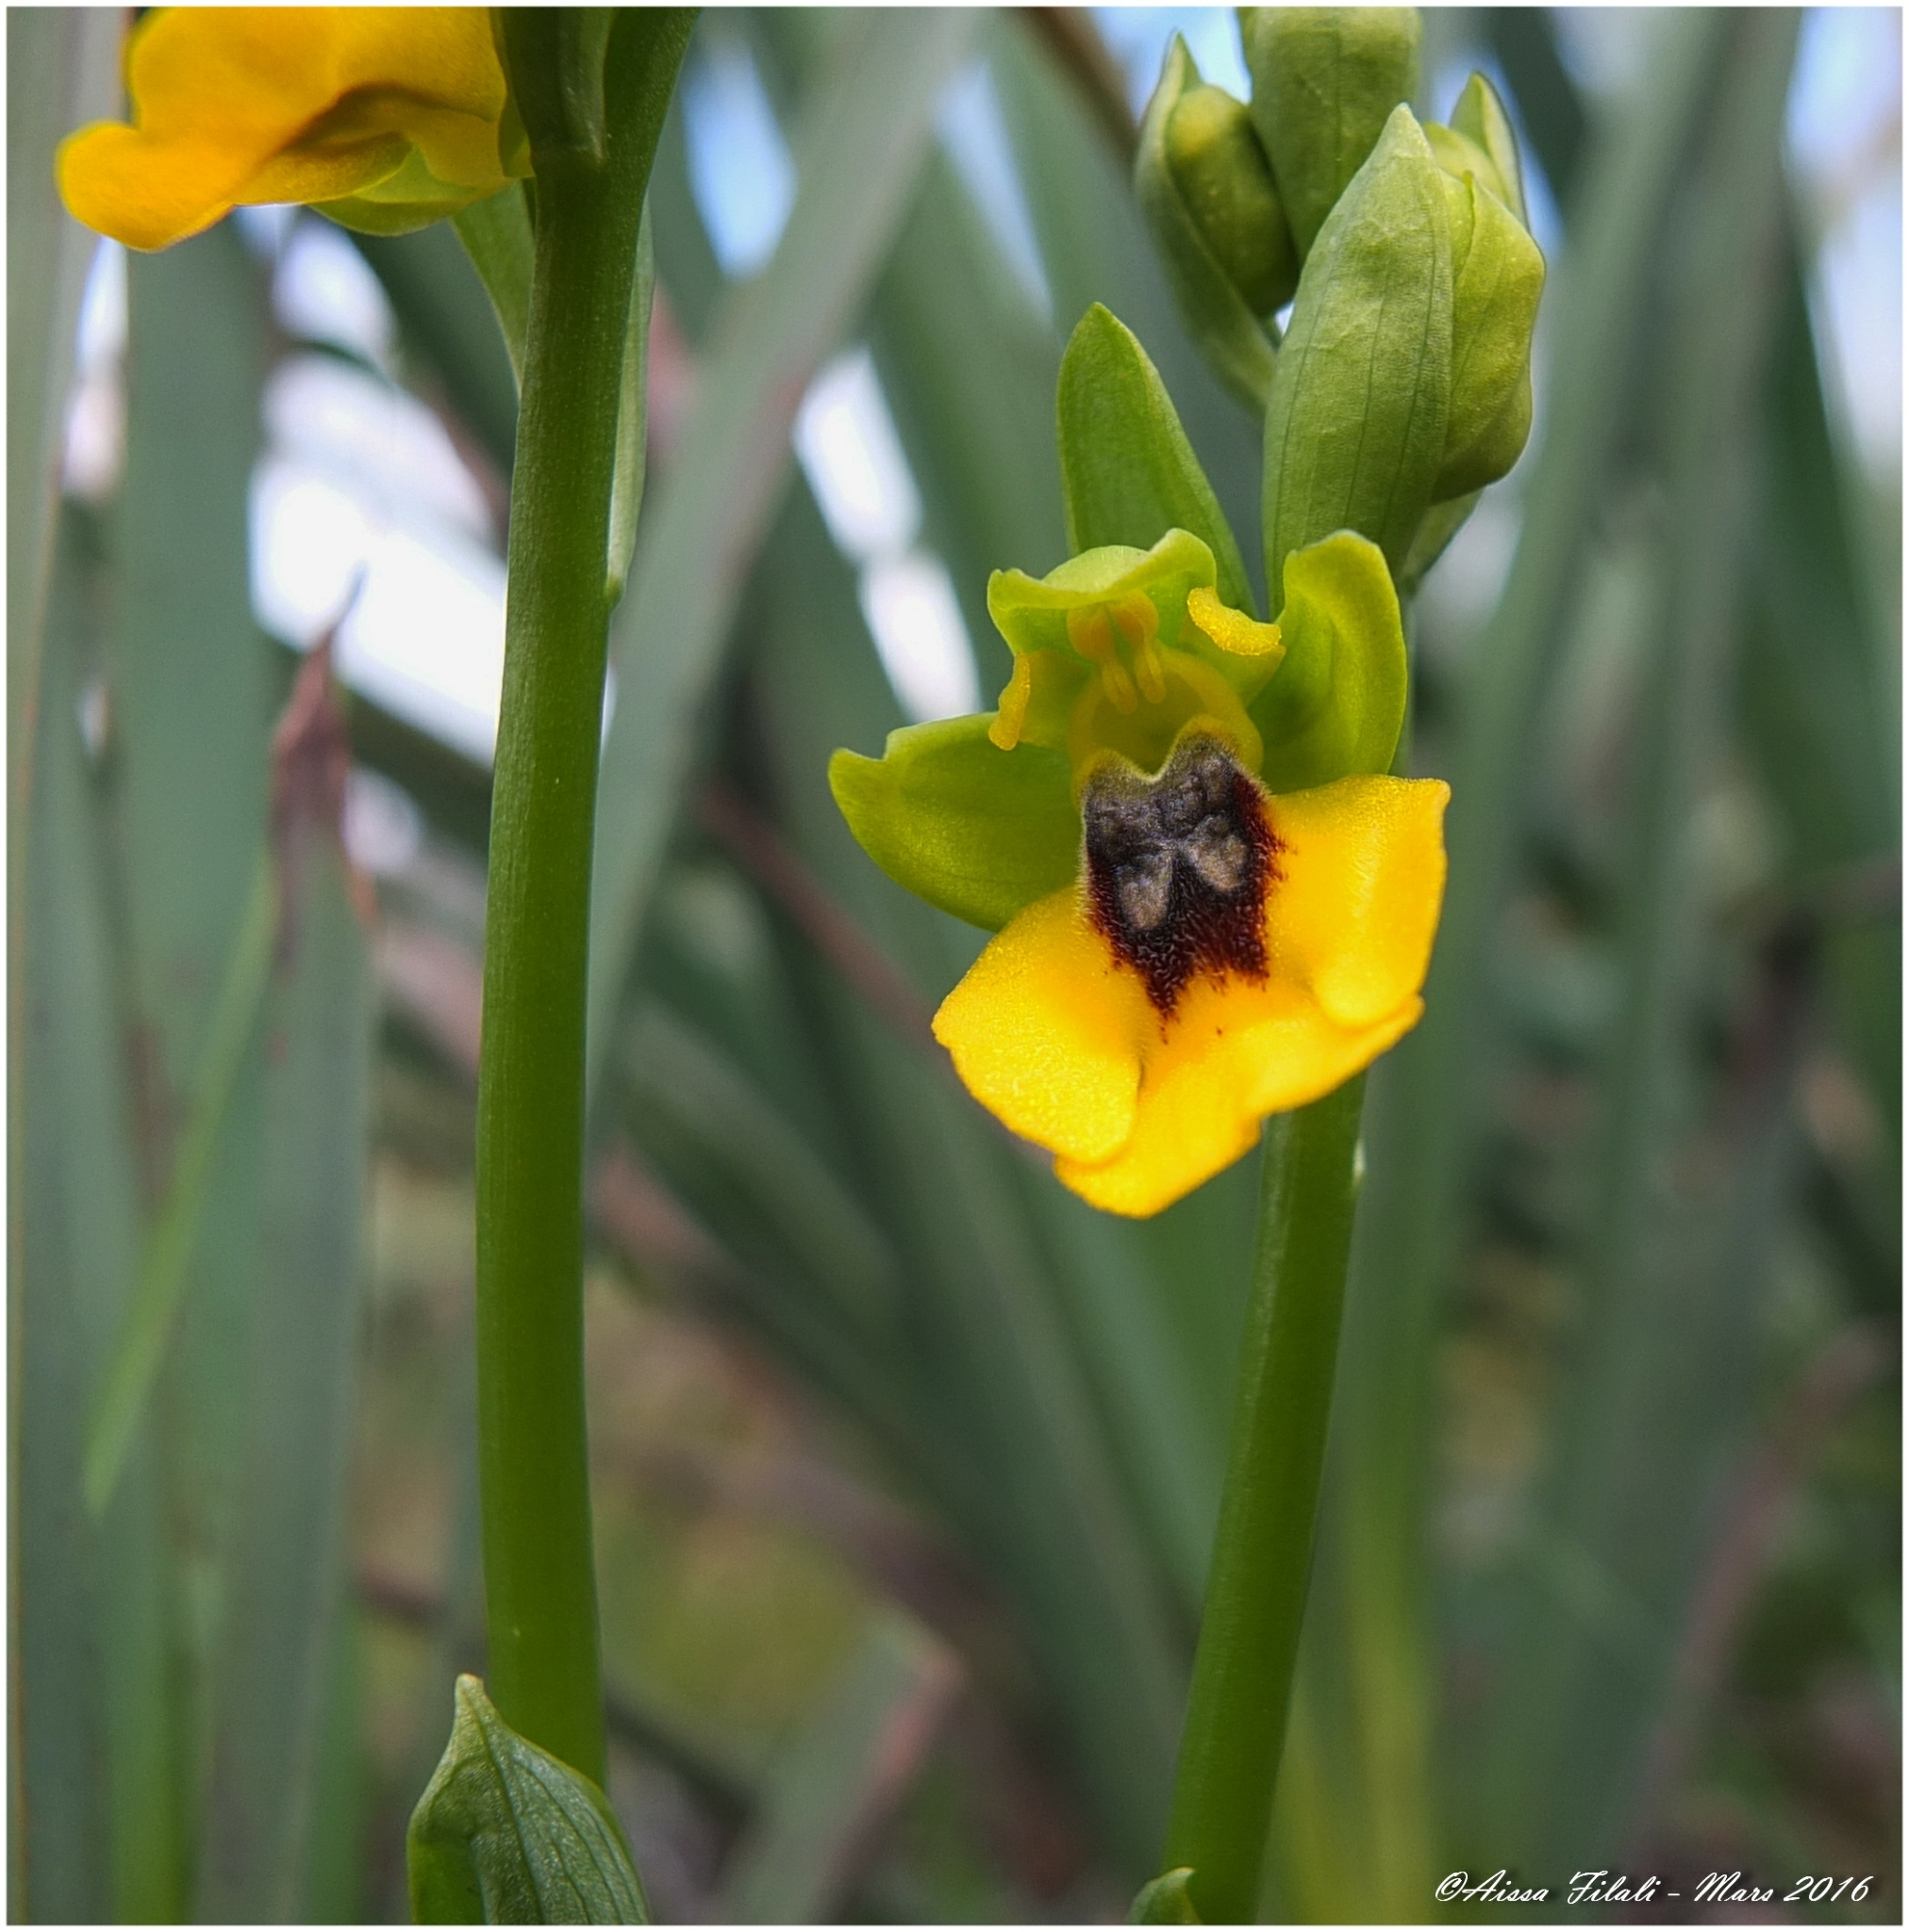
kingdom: Plantae
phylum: Tracheophyta
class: Liliopsida
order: Asparagales
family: Orchidaceae
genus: Ophrys
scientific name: Ophrys lutea
